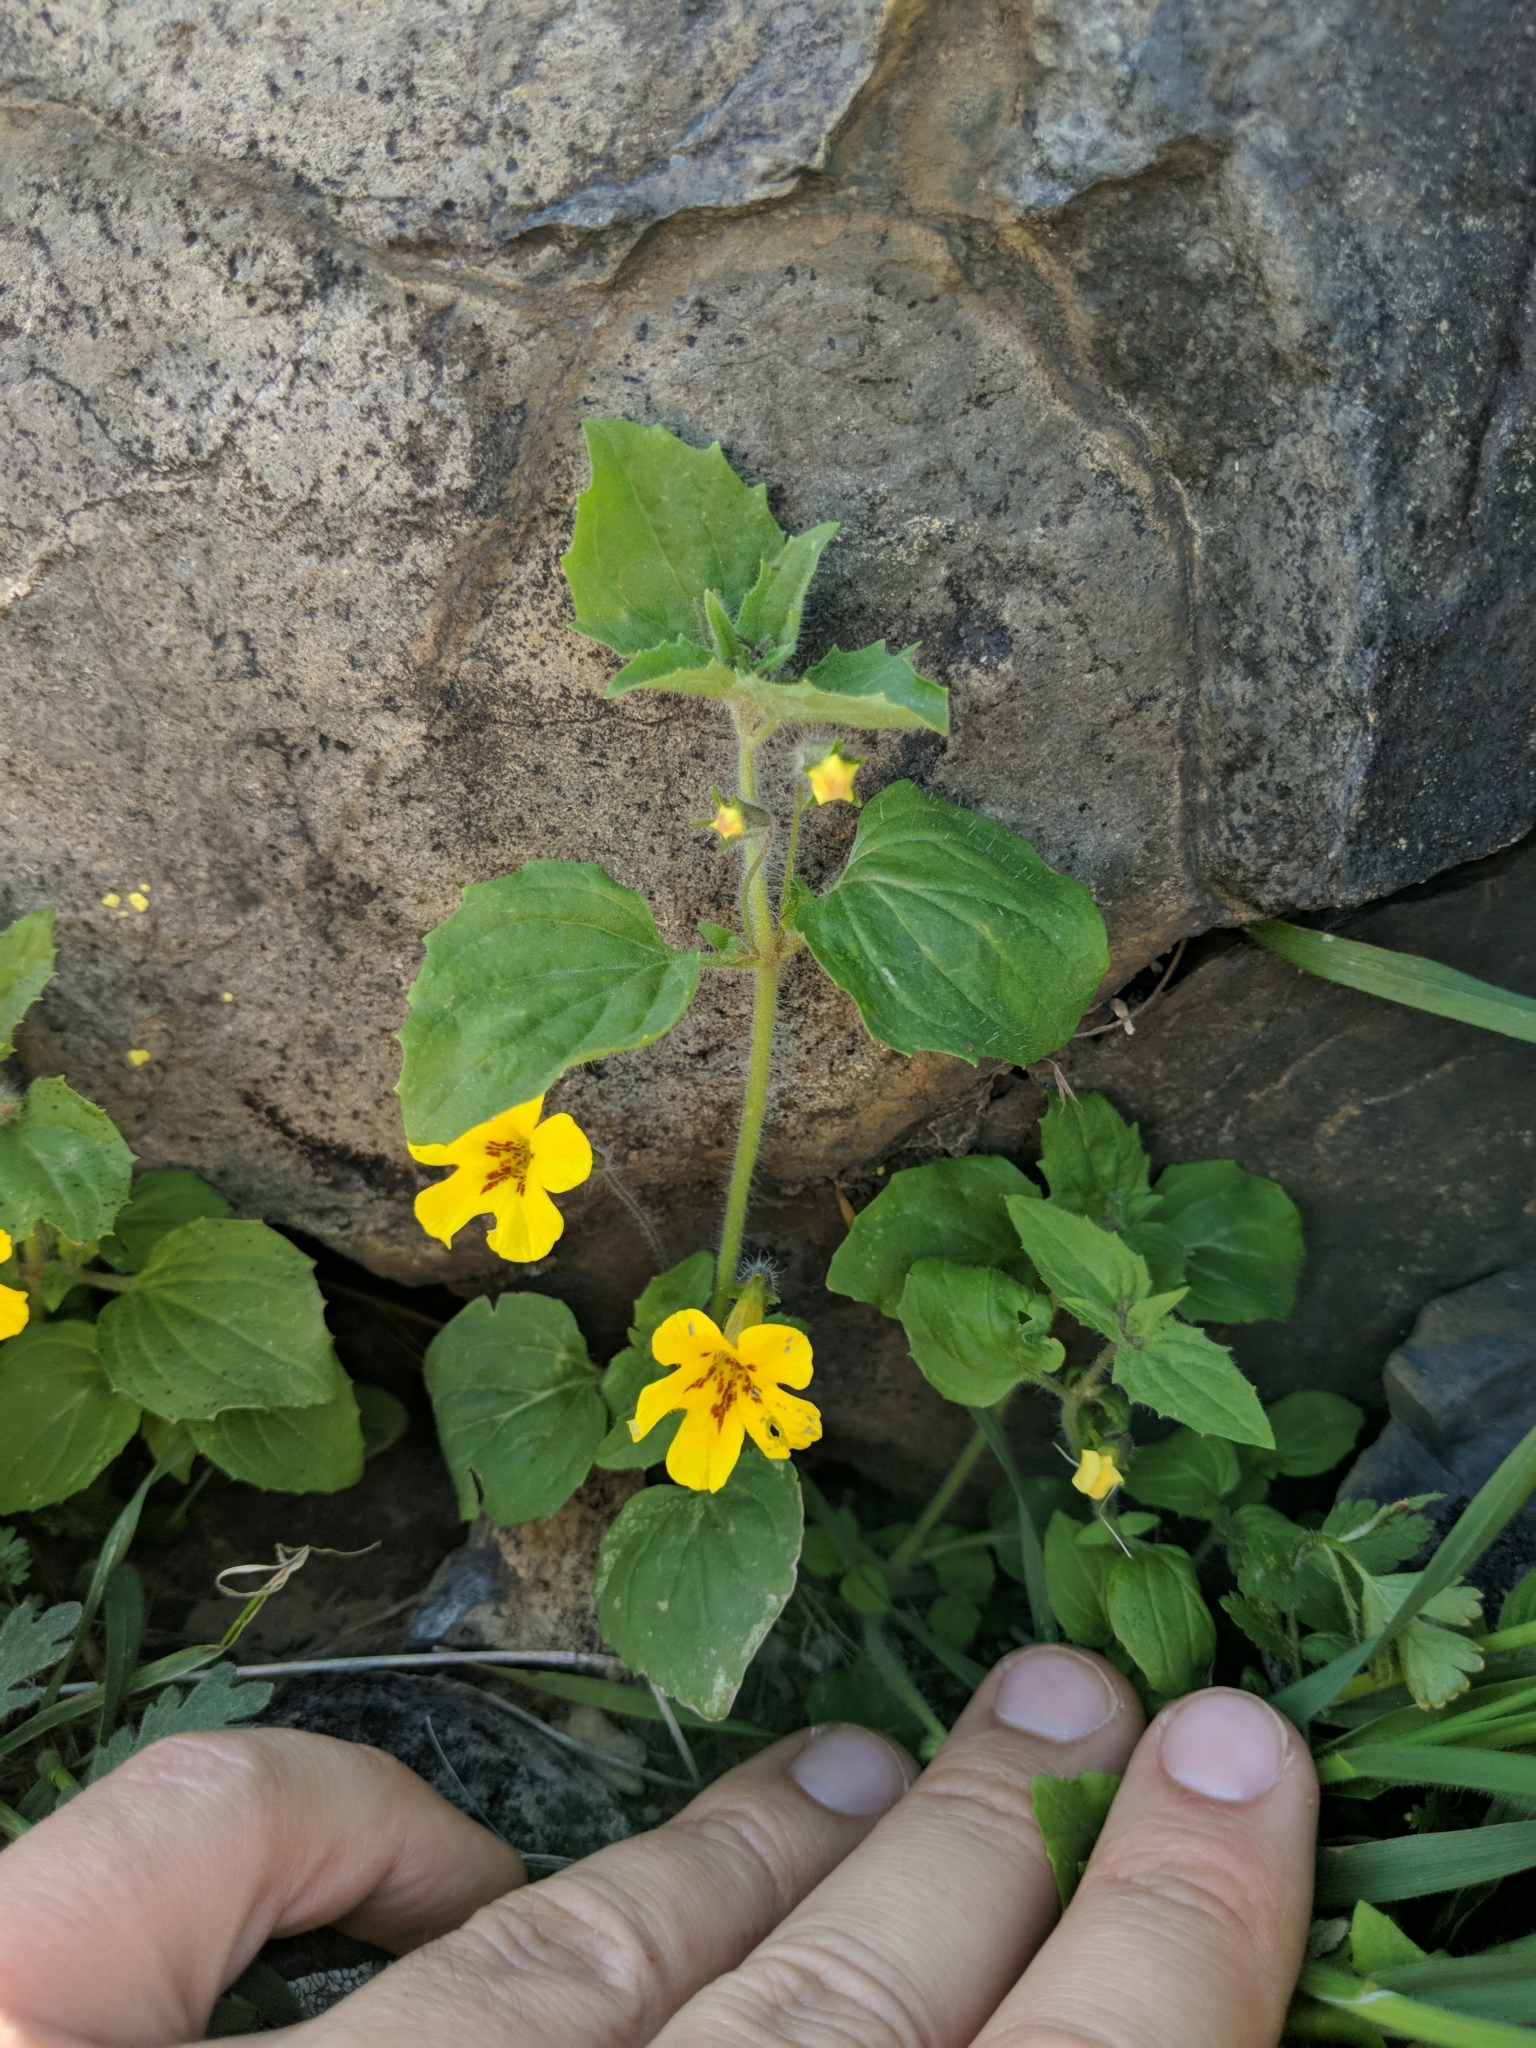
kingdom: Plantae
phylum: Tracheophyta
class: Magnoliopsida
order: Lamiales
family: Phrymaceae
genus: Erythranthe
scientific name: Erythranthe geniculata
